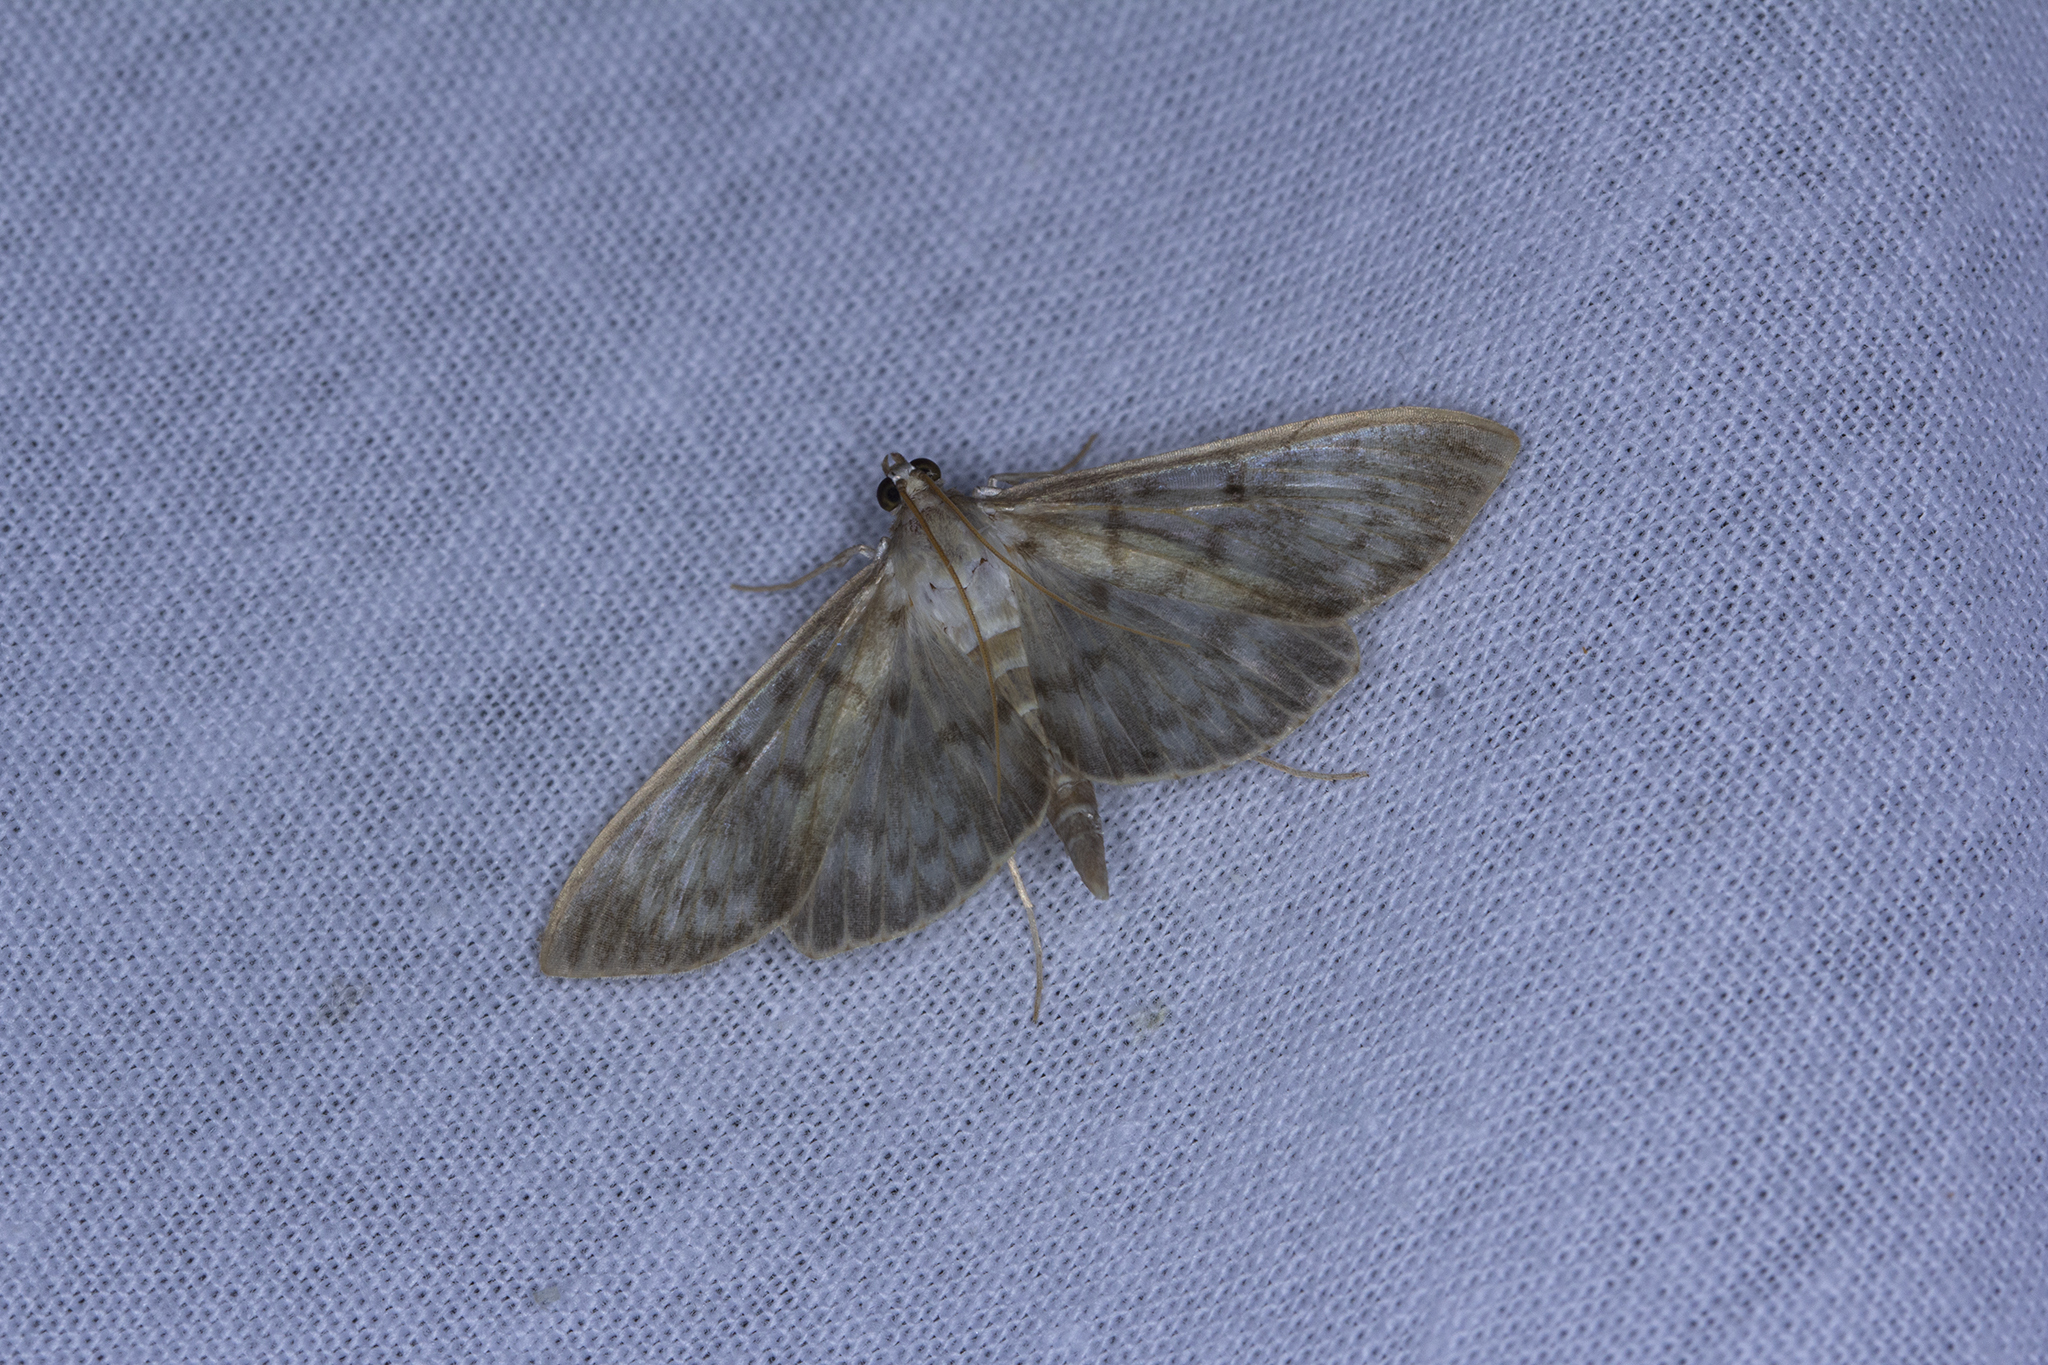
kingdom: Animalia
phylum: Arthropoda
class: Insecta
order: Lepidoptera
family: Crambidae
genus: Patania
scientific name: Patania ruralis
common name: Mother of pearl
